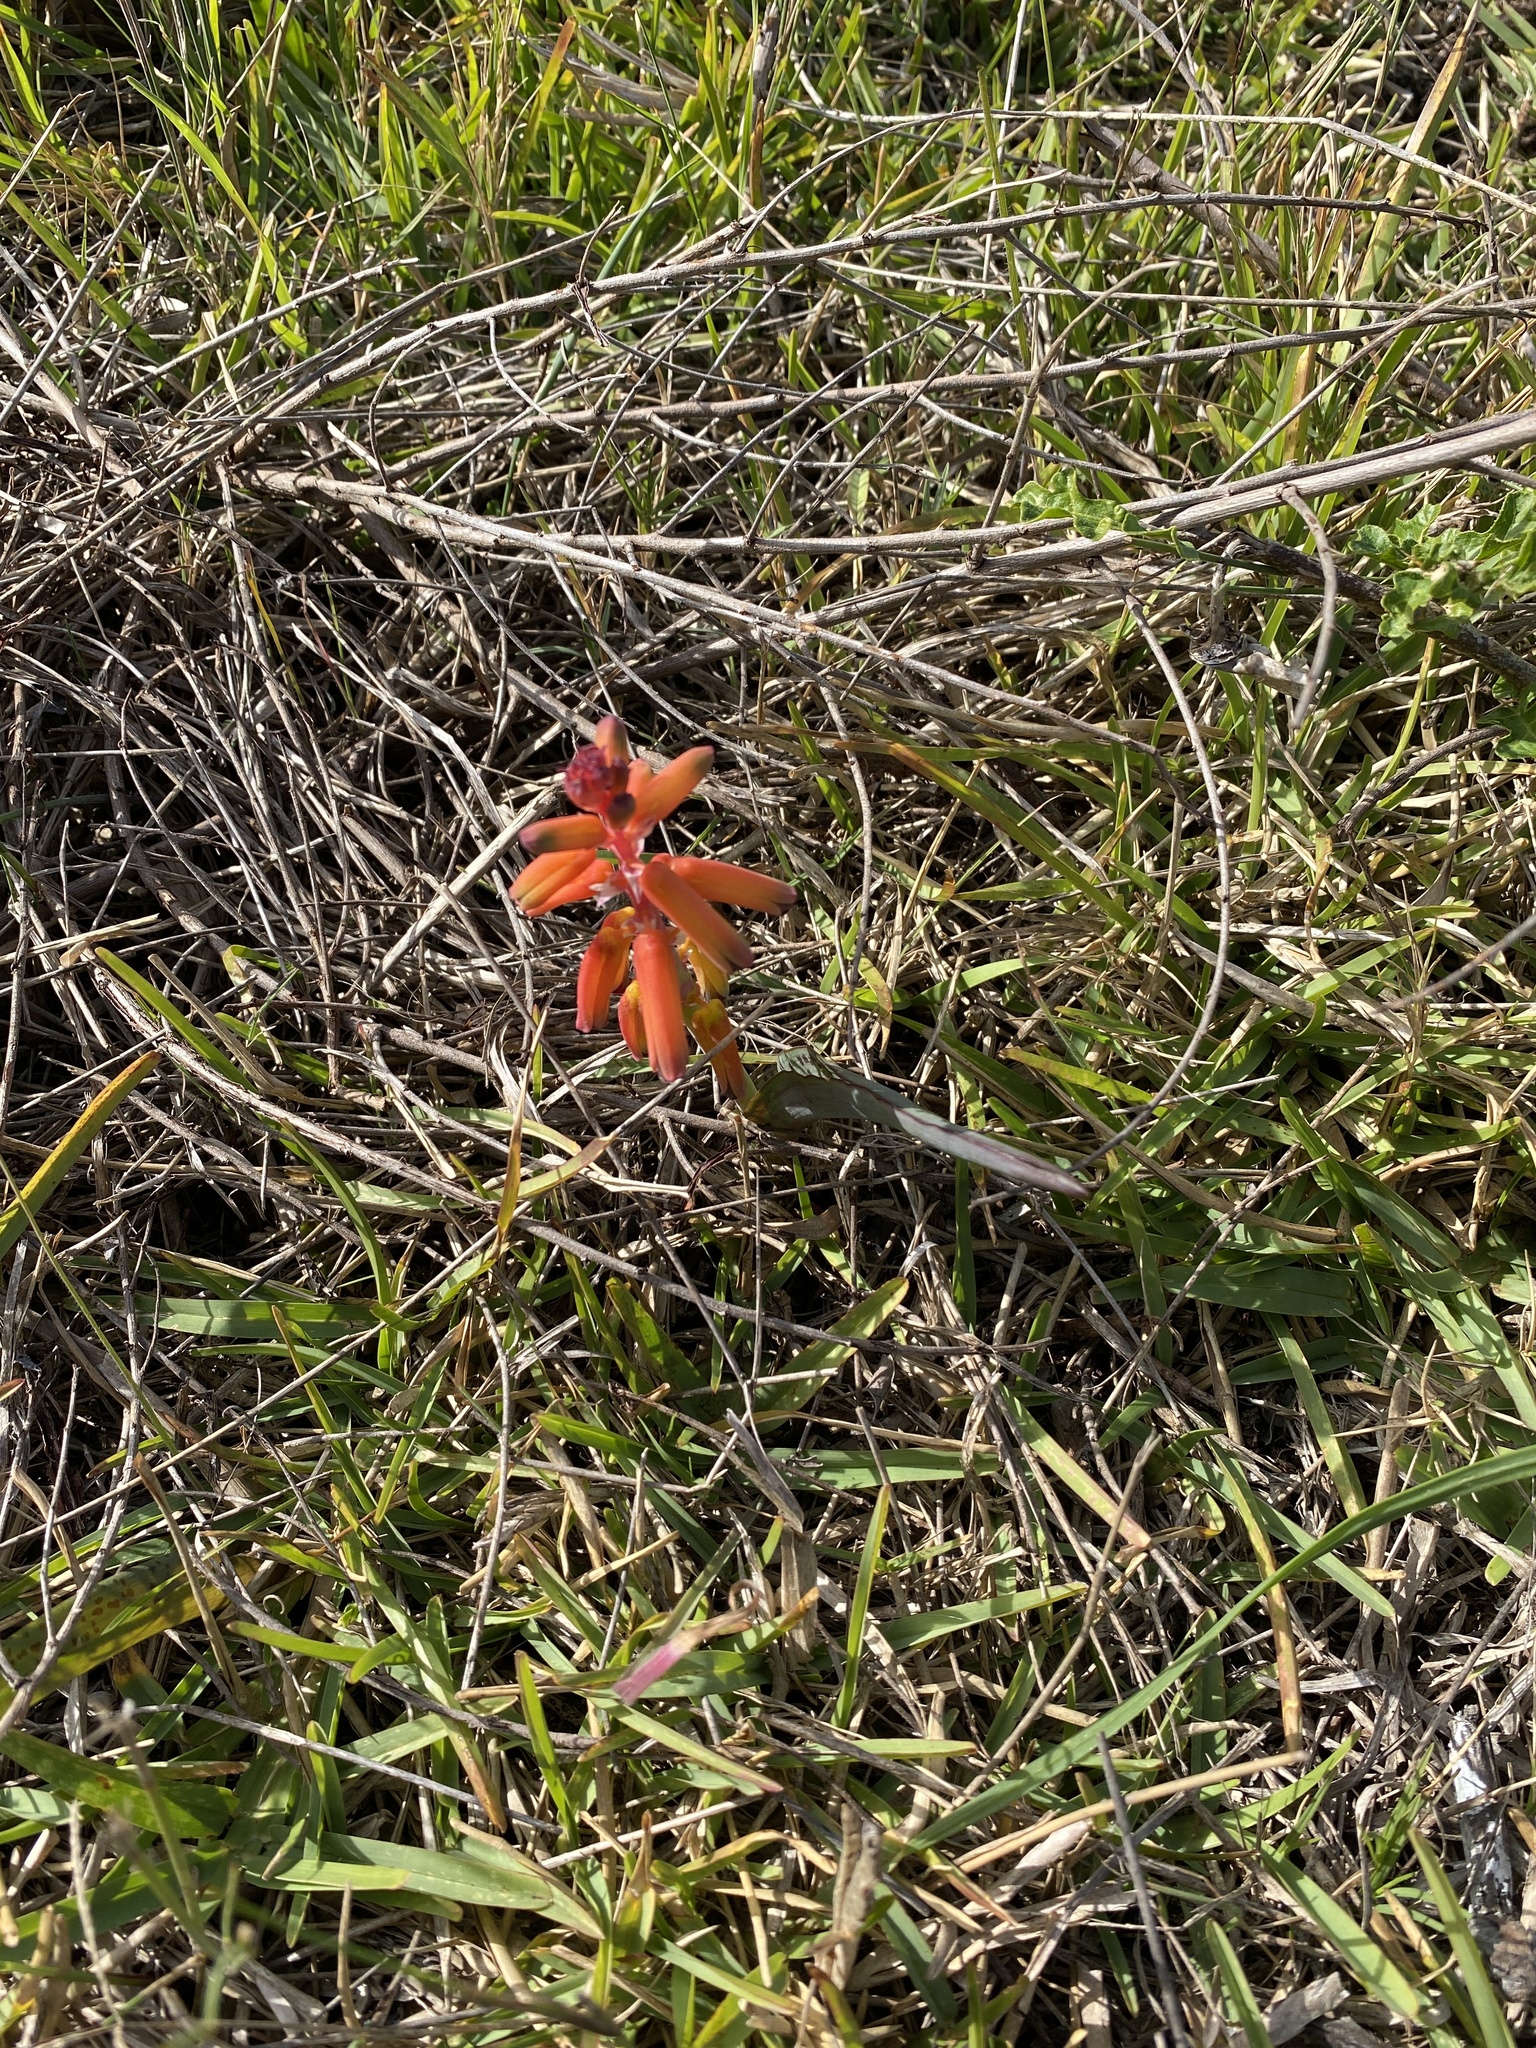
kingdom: Plantae
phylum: Tracheophyta
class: Liliopsida
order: Asparagales
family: Asparagaceae
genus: Lachenalia
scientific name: Lachenalia bulbifera
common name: Red lachenalia
